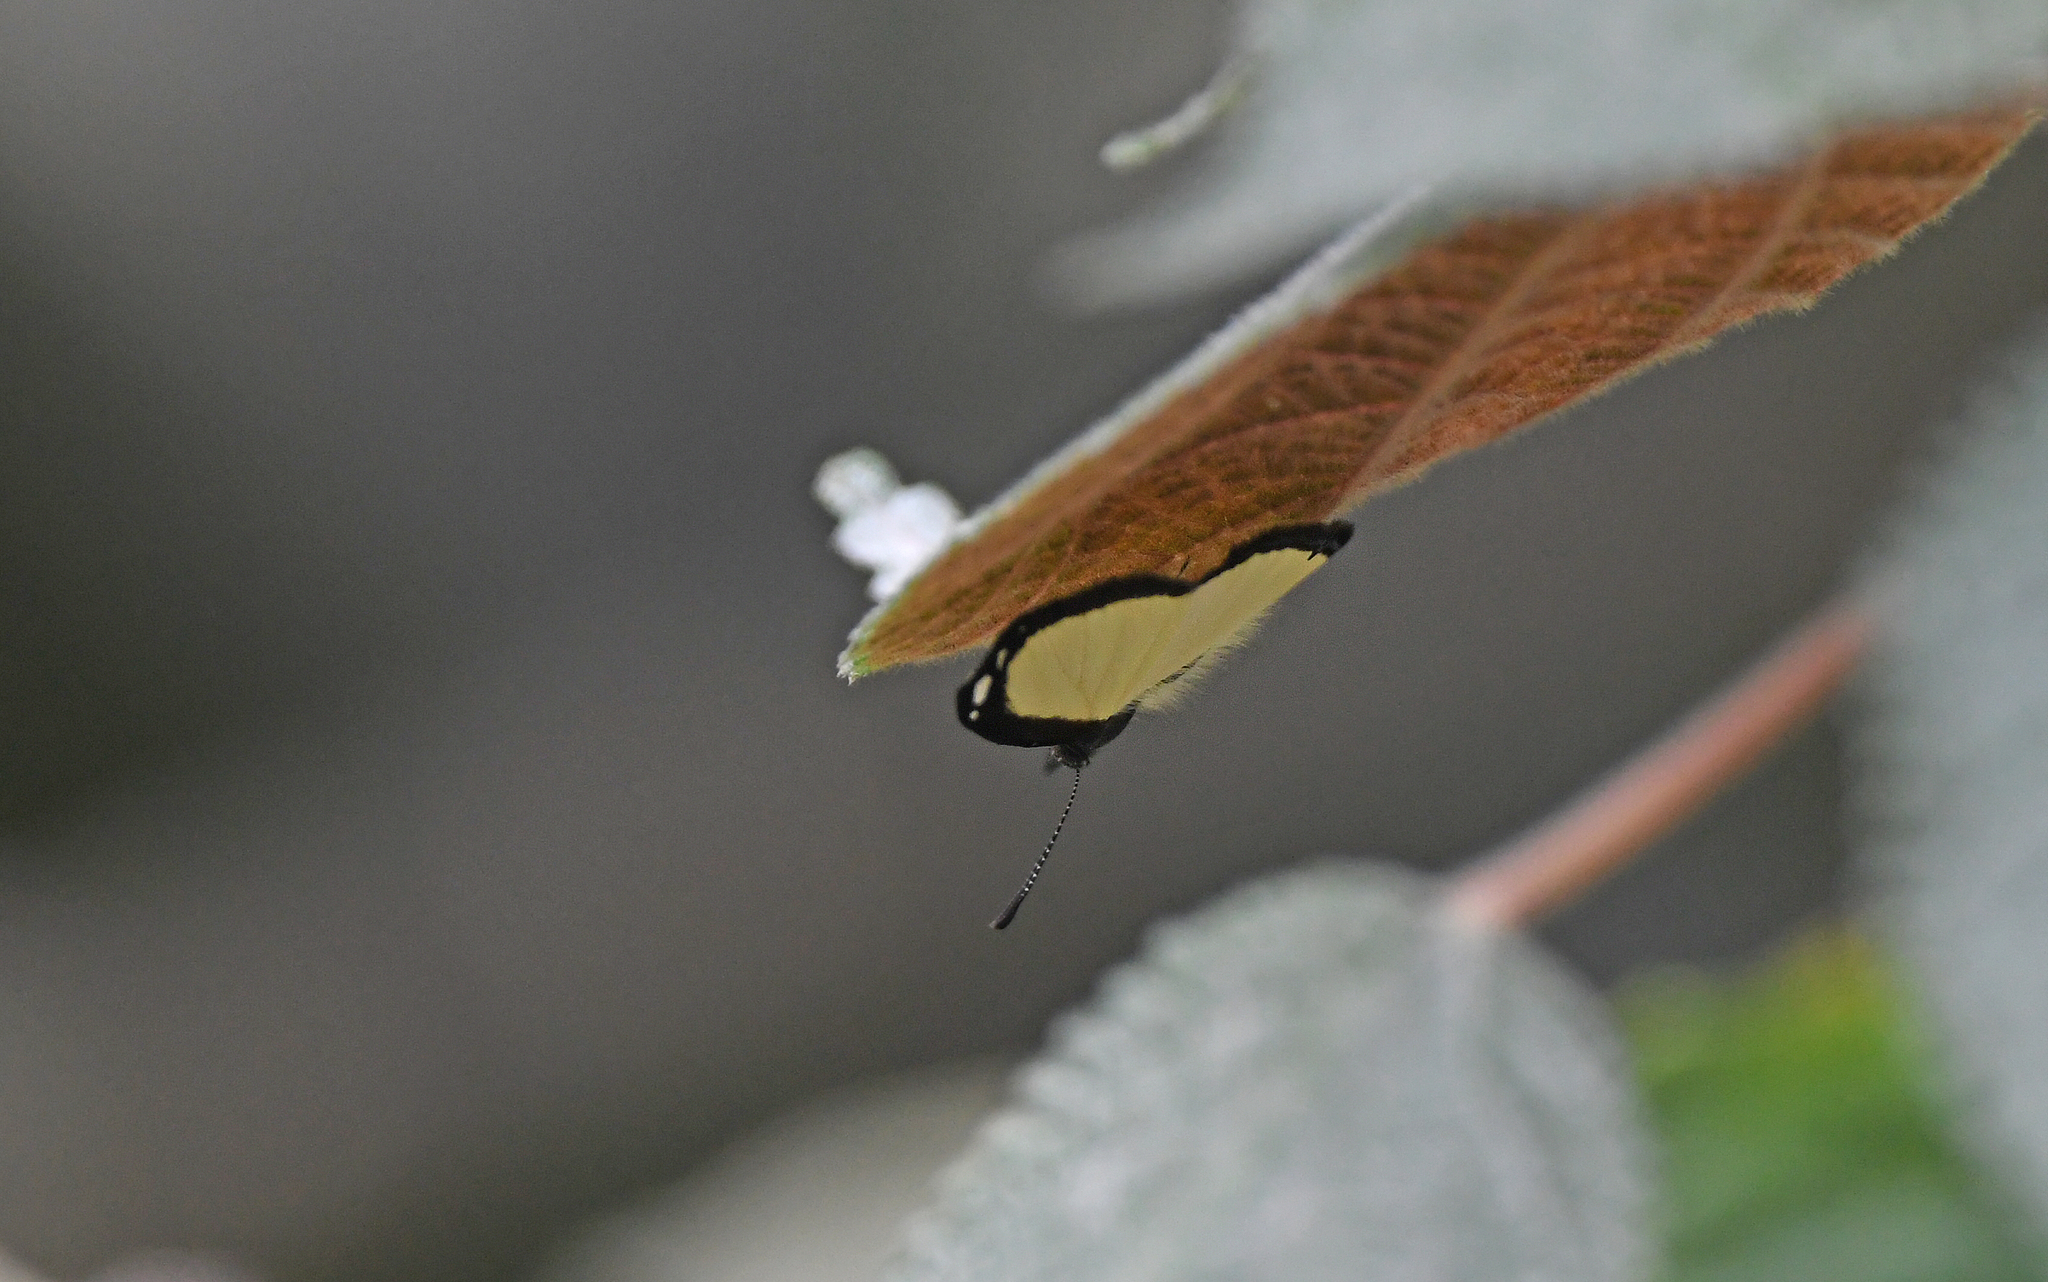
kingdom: Animalia
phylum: Arthropoda
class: Insecta
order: Coleoptera
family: Scarabaeidae
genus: Cesamexico
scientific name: Cesamexico
